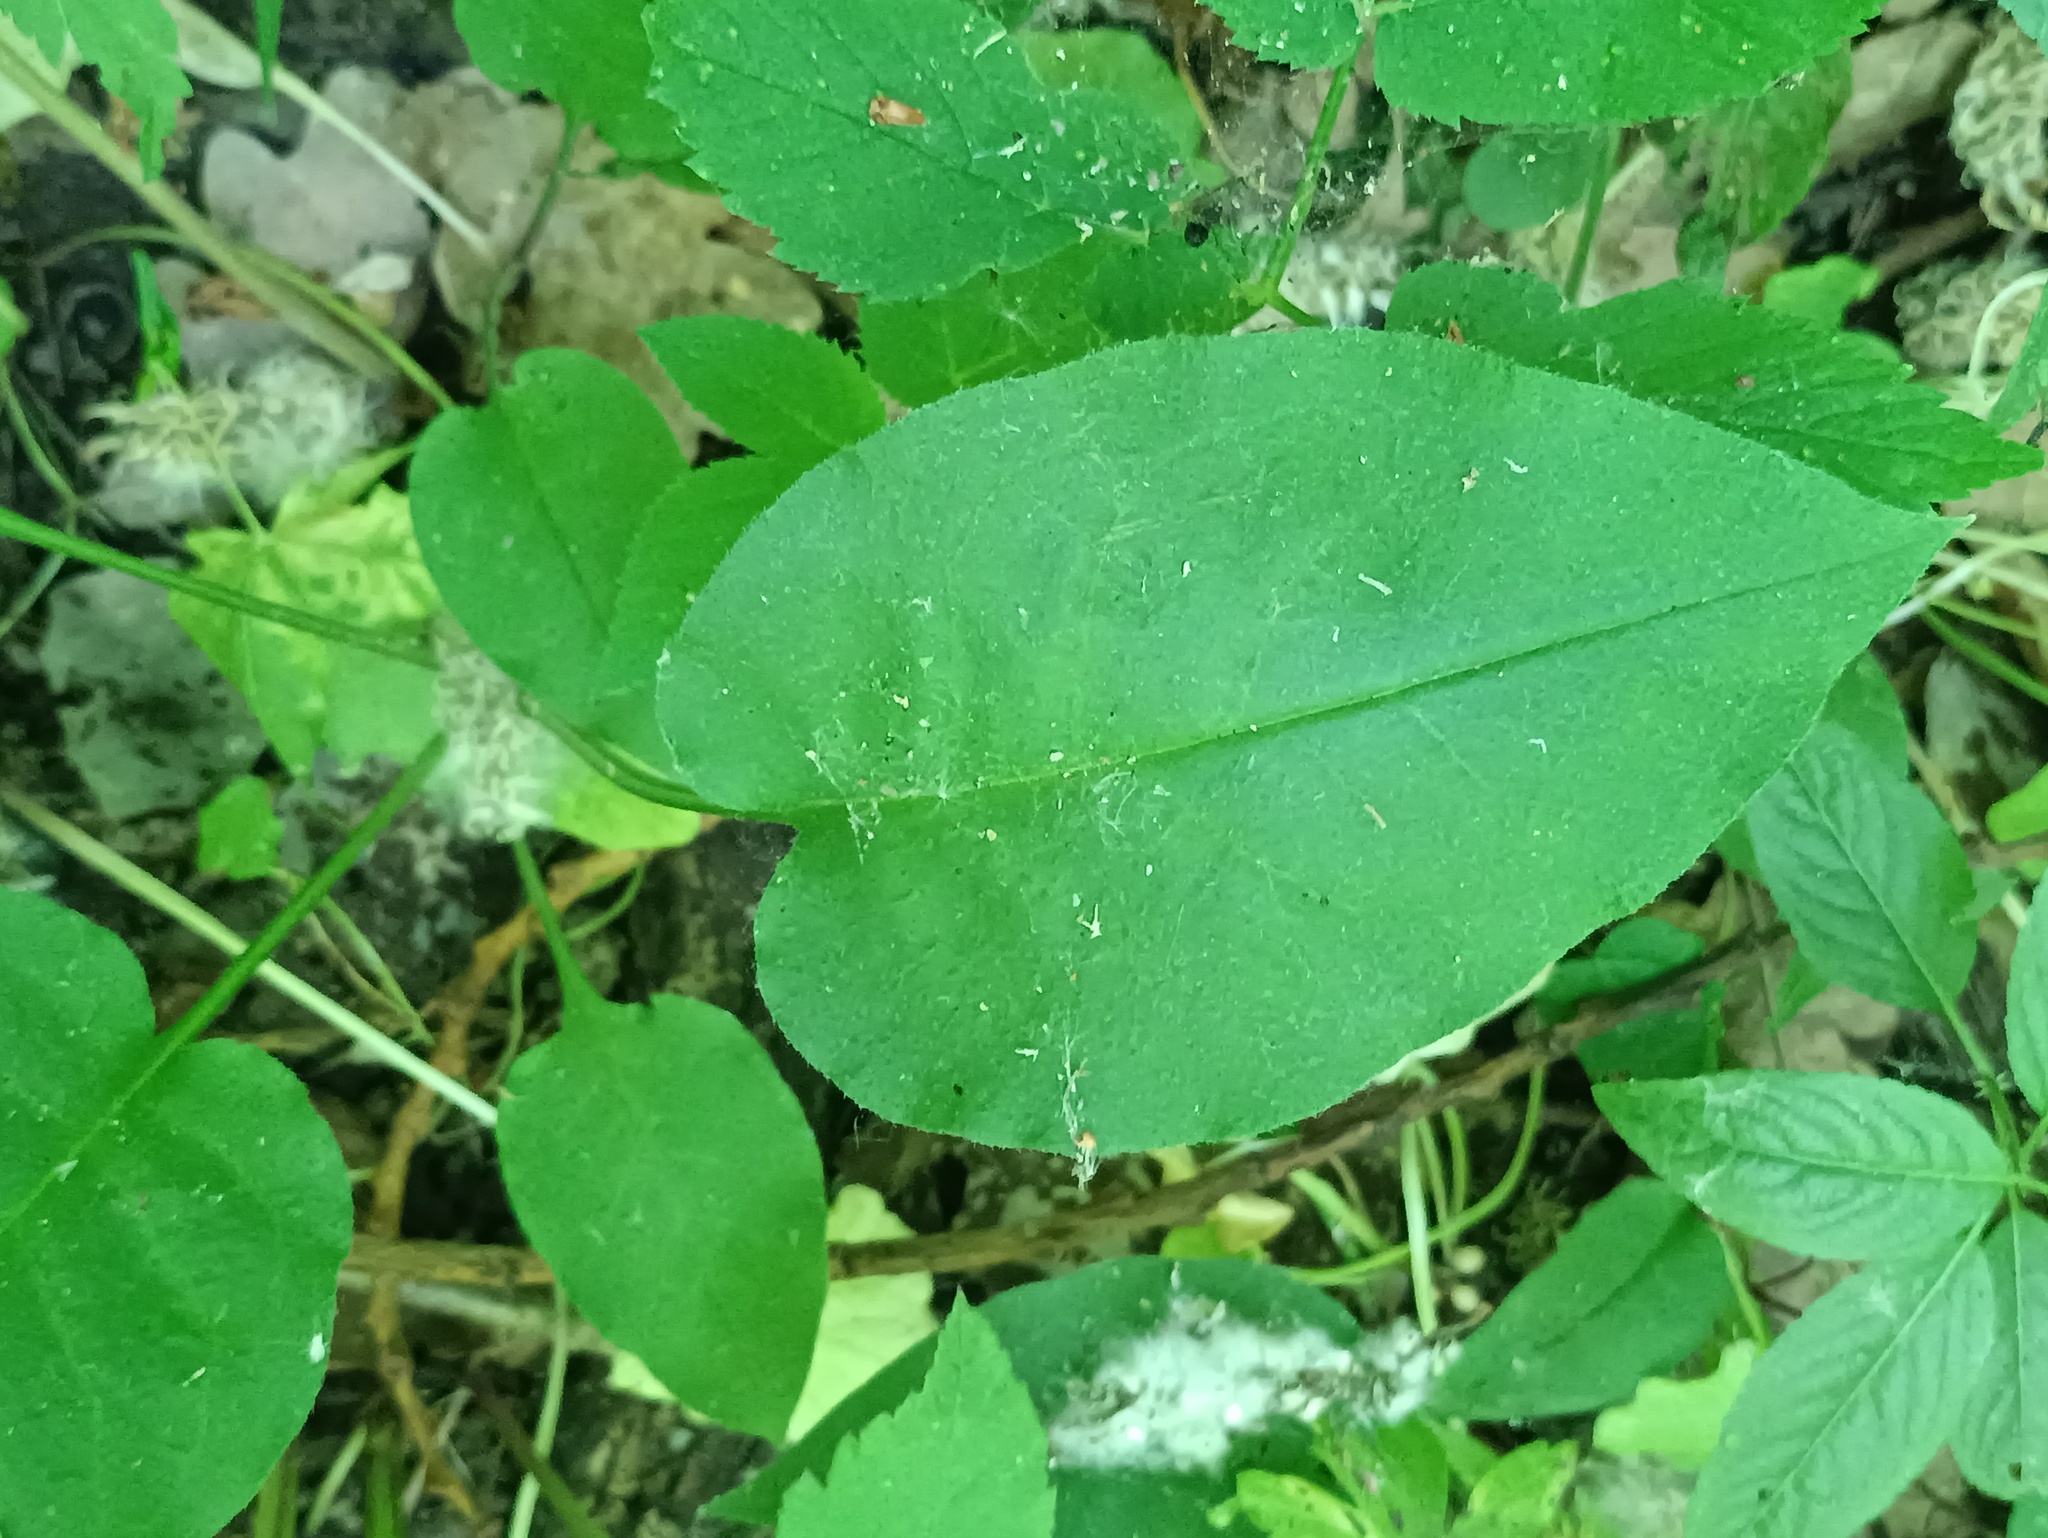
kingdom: Plantae
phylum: Tracheophyta
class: Magnoliopsida
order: Boraginales
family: Boraginaceae
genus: Pulmonaria
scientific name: Pulmonaria obscura
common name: Suffolk lungwort
